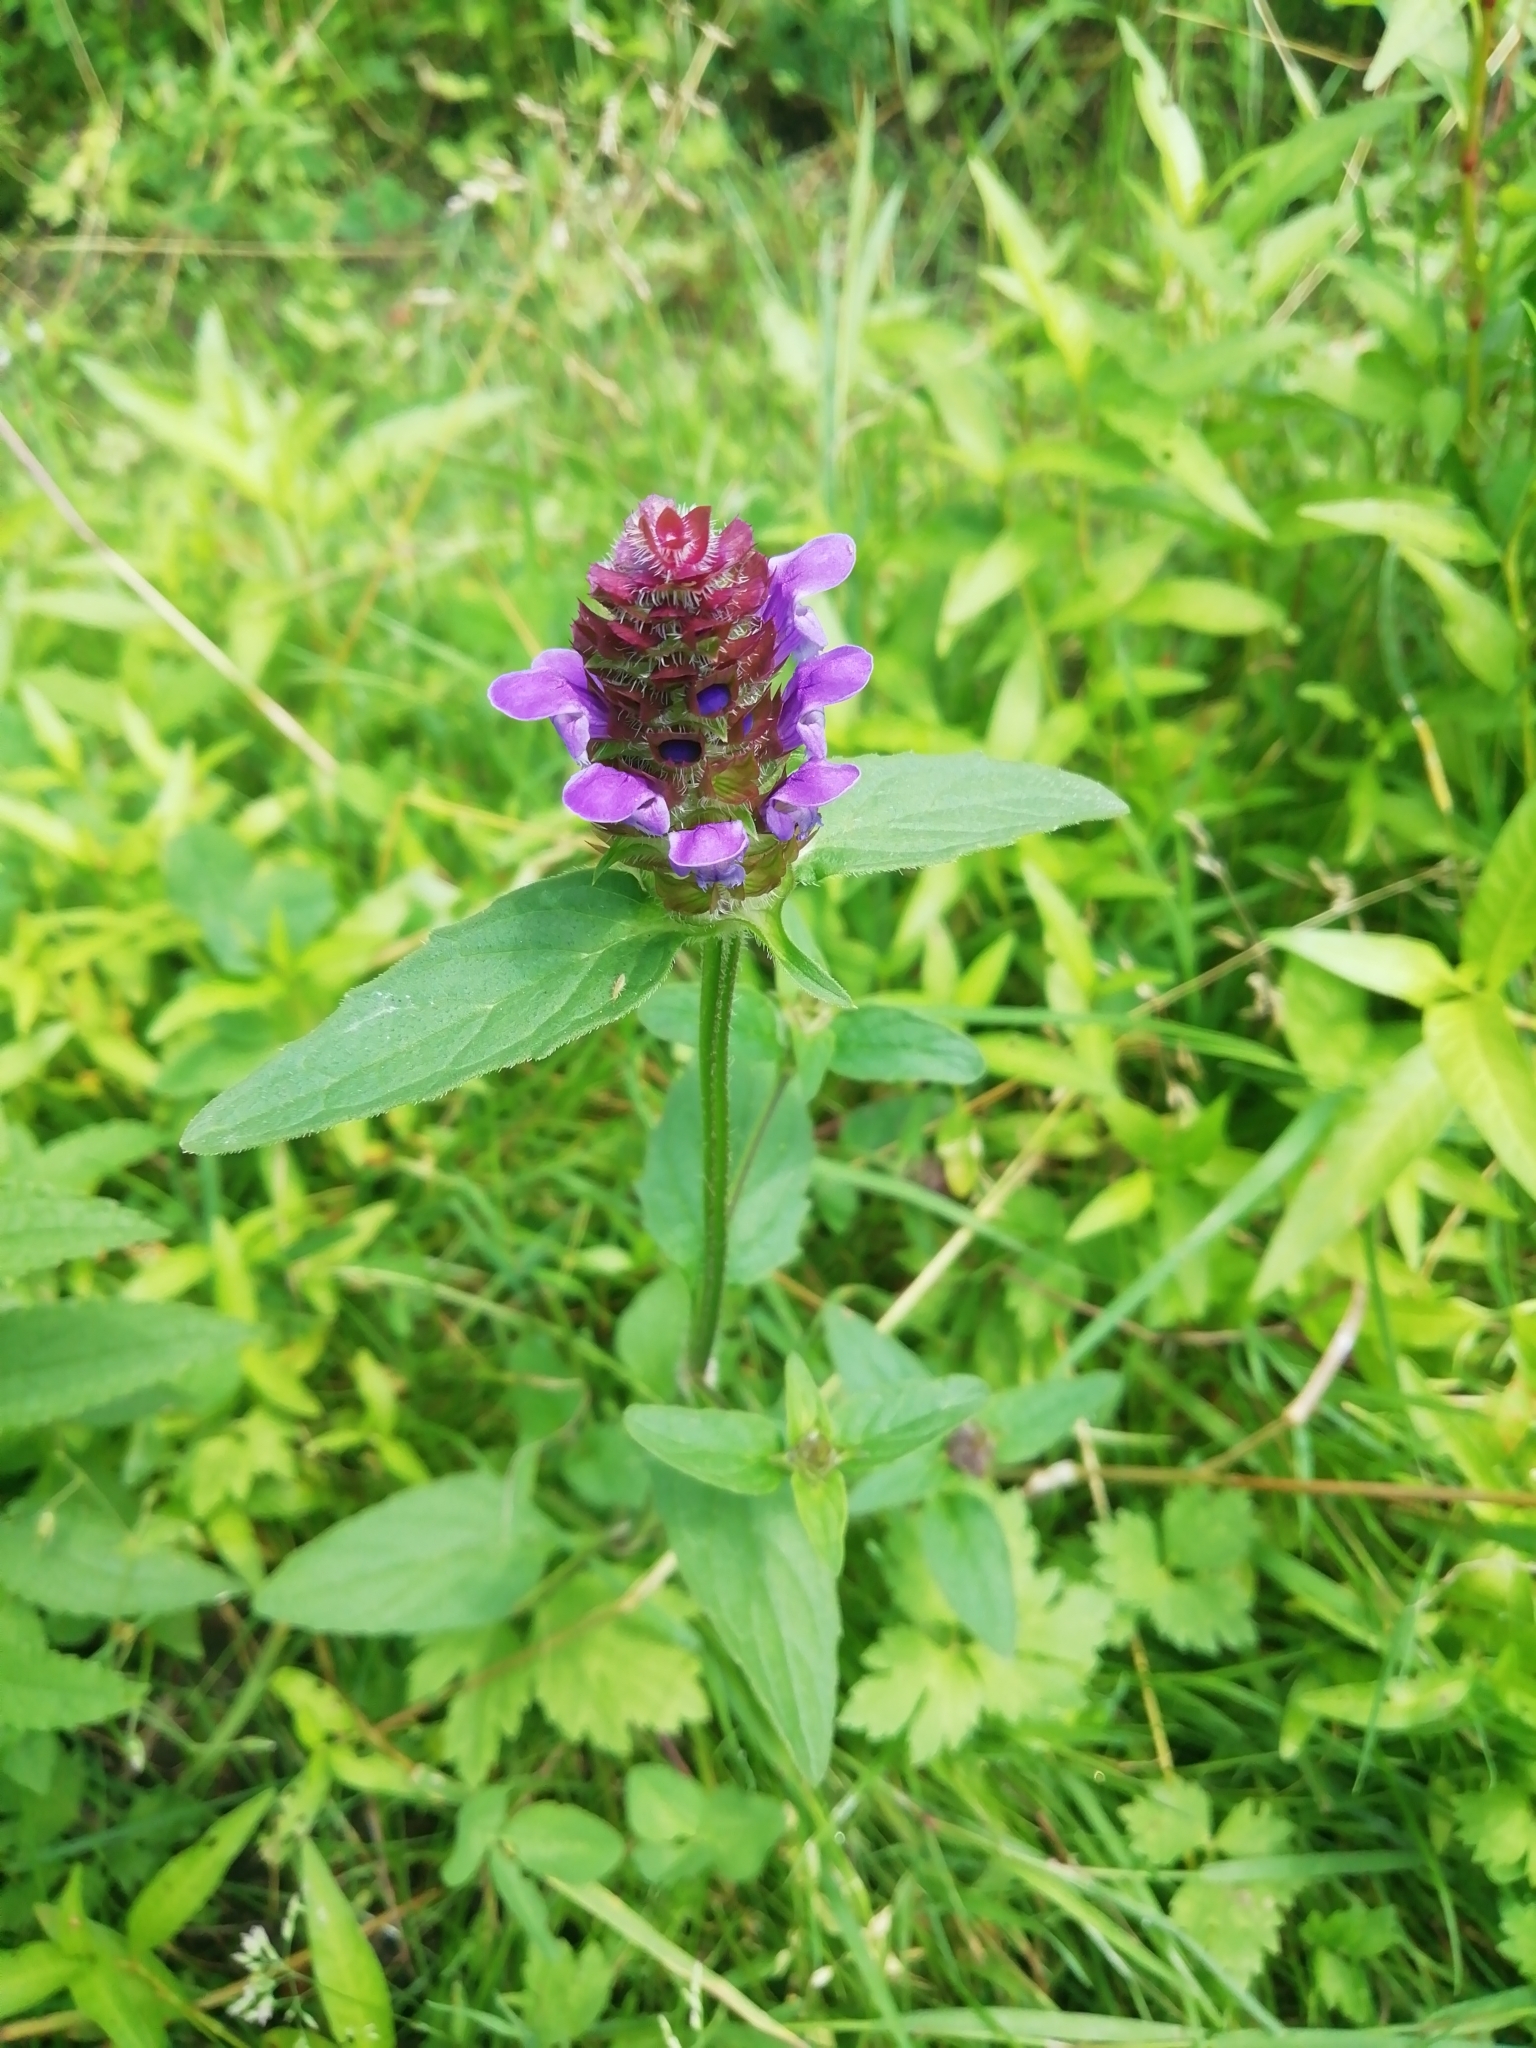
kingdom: Plantae
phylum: Tracheophyta
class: Magnoliopsida
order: Lamiales
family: Lamiaceae
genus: Prunella
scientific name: Prunella vulgaris
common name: Heal-all
